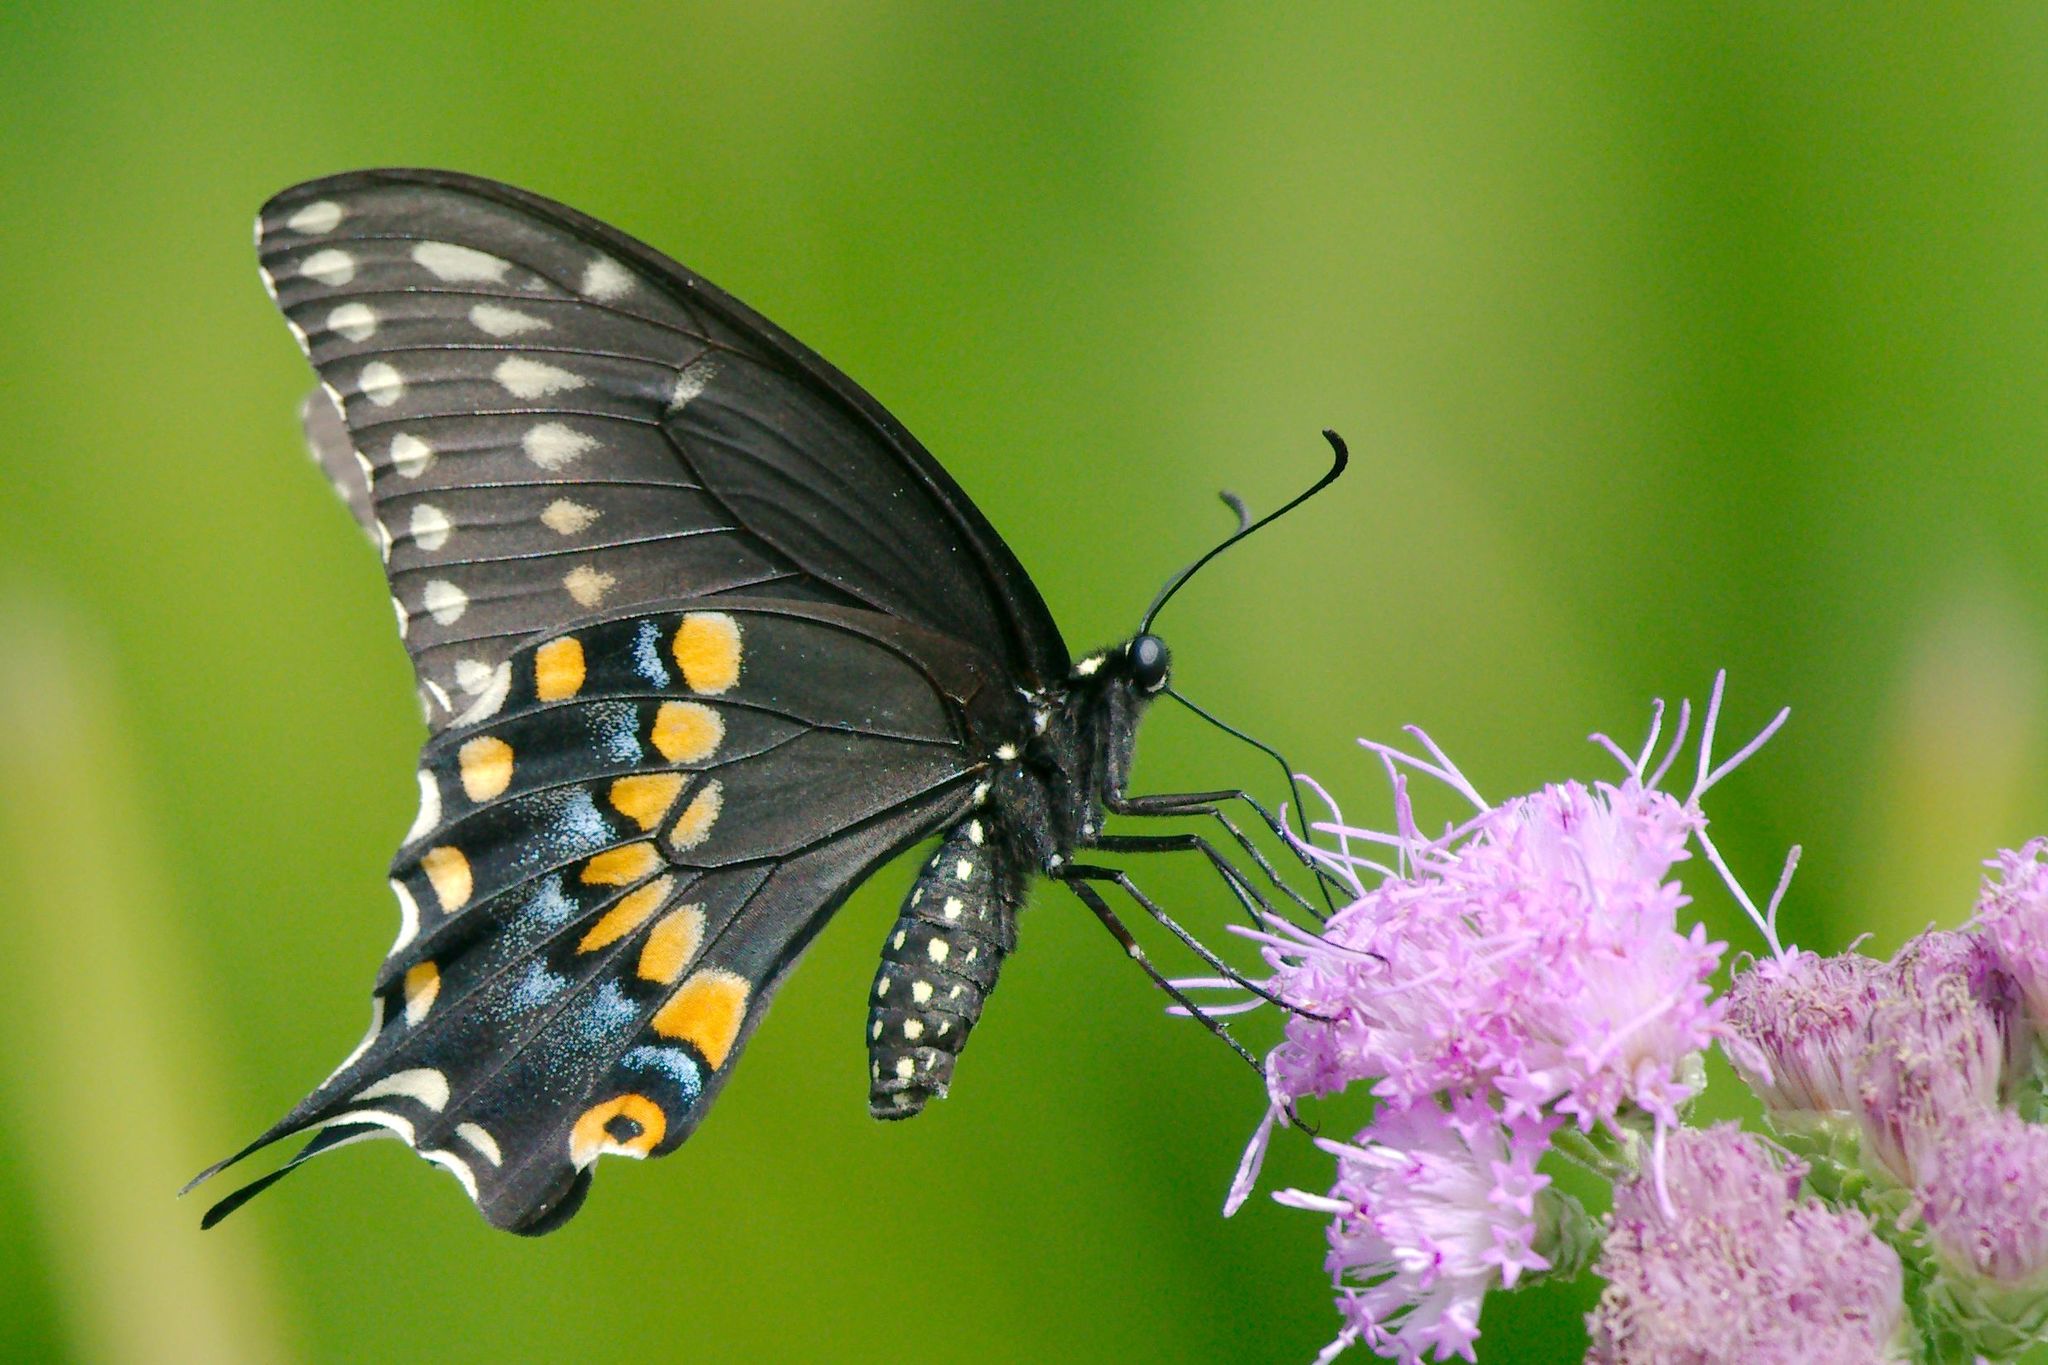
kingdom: Animalia
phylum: Arthropoda
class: Insecta
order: Lepidoptera
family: Papilionidae
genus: Papilio
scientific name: Papilio polyxenes
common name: Black swallowtail
